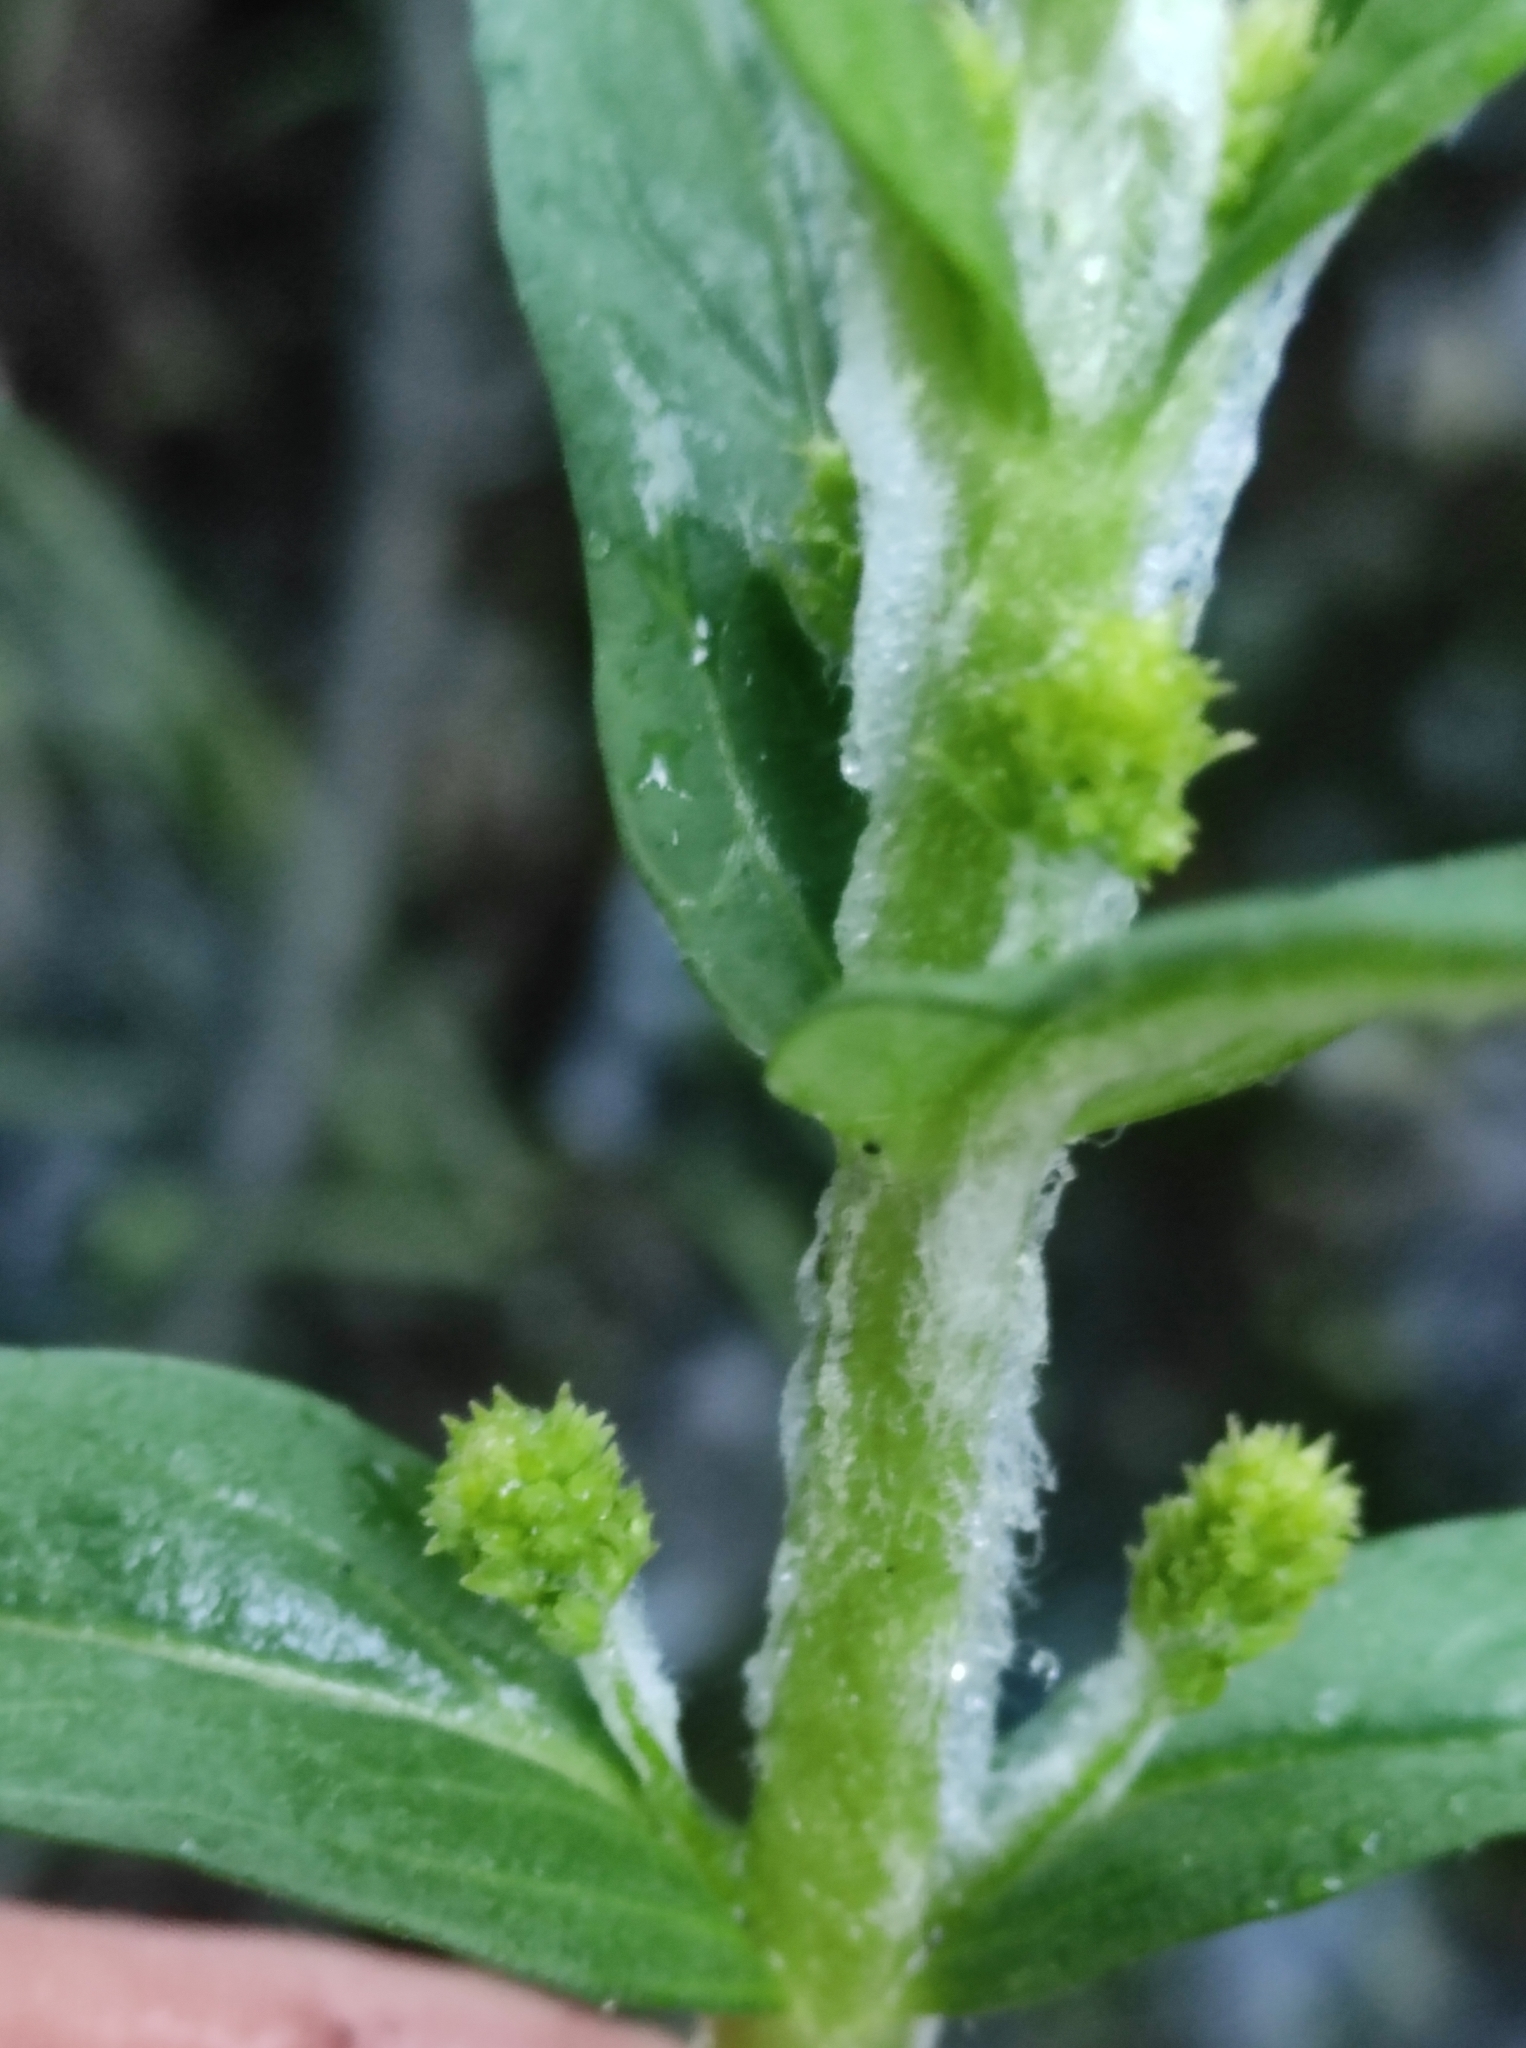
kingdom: Plantae
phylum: Tracheophyta
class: Magnoliopsida
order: Ericales
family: Primulaceae
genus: Lysimachia
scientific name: Lysimachia thyrsiflora
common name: Tufted loosestrife
